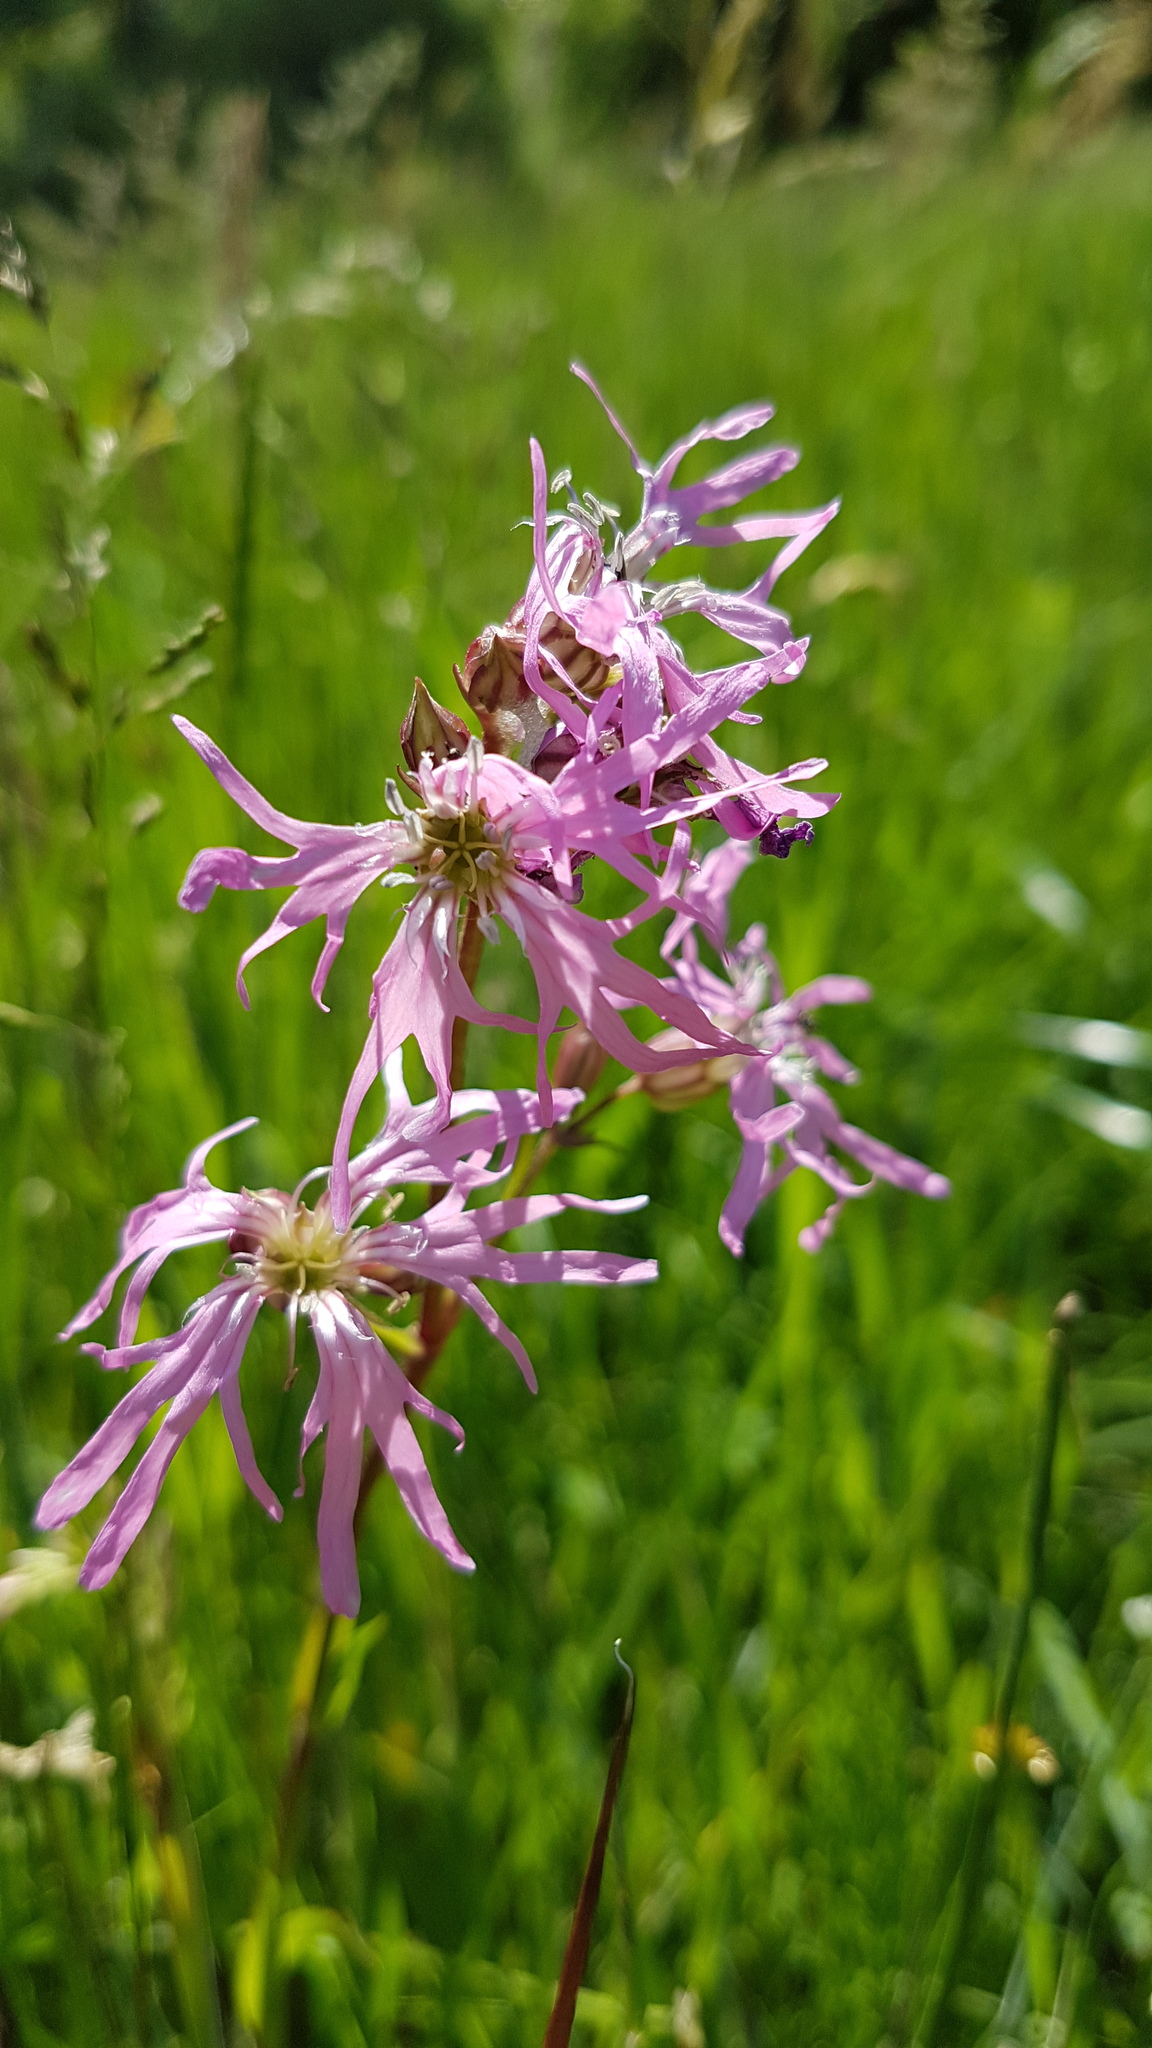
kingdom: Plantae
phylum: Tracheophyta
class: Magnoliopsida
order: Caryophyllales
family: Caryophyllaceae
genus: Silene
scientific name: Silene flos-cuculi
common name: Ragged-robin
